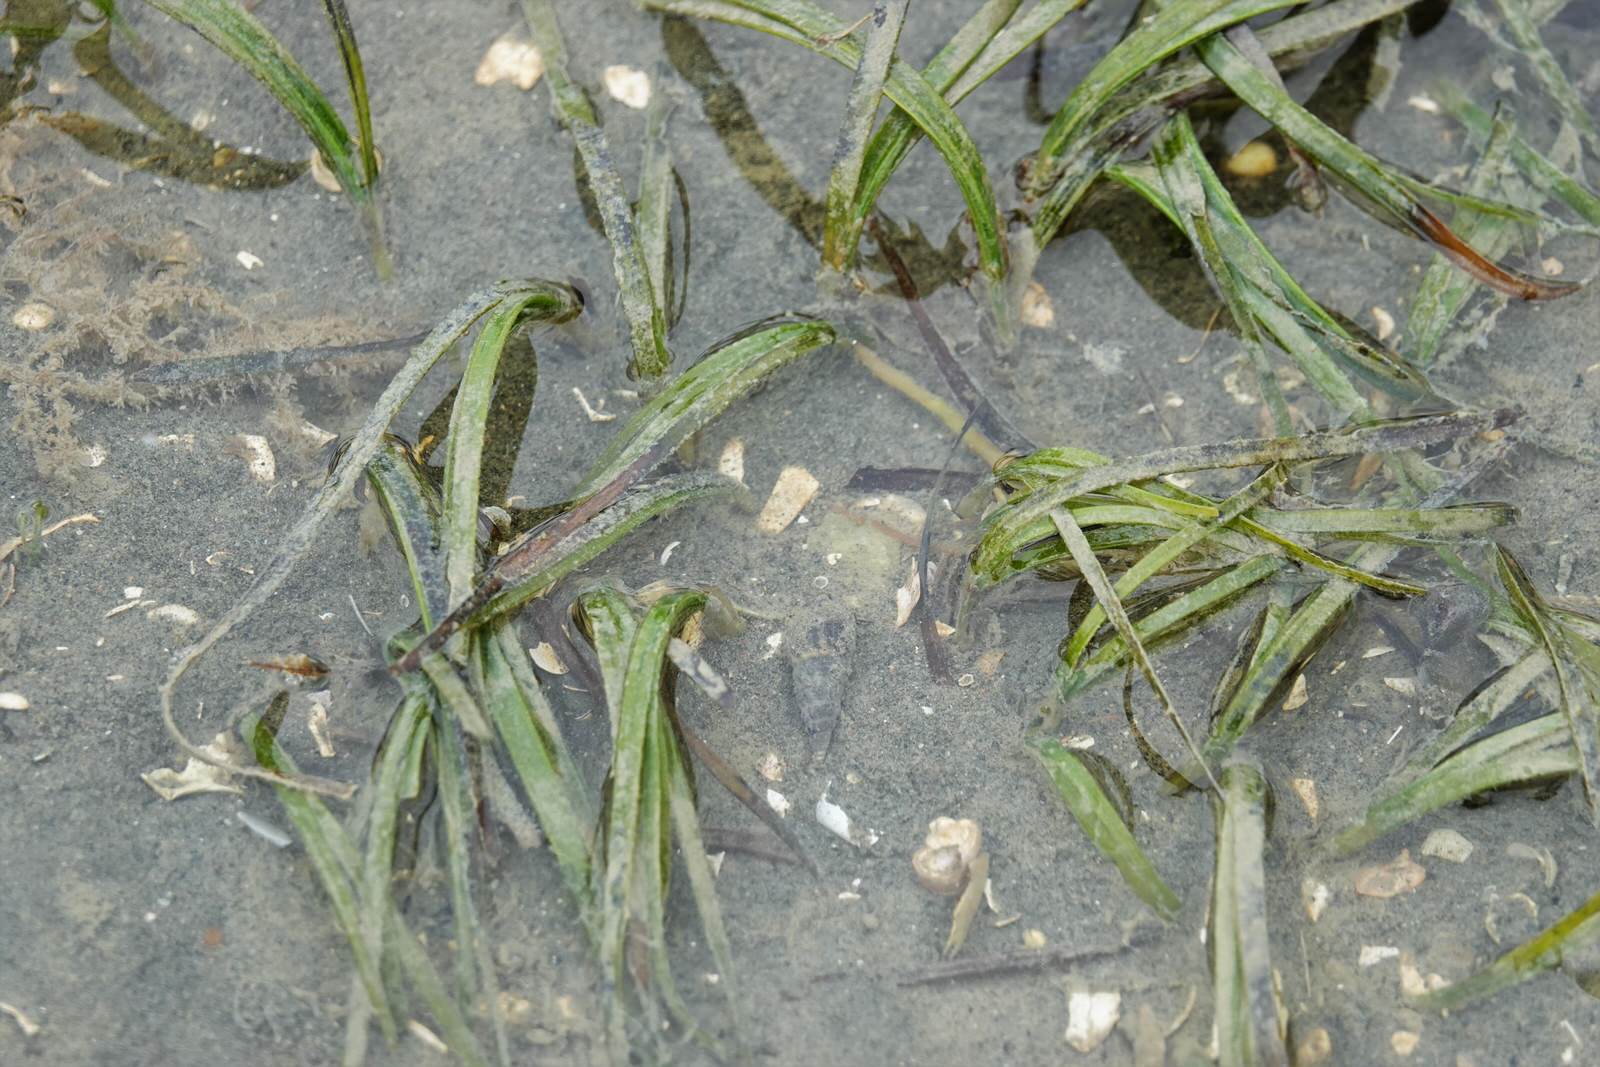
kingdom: Plantae
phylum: Tracheophyta
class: Liliopsida
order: Alismatales
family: Zosteraceae
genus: Zostera
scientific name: Zostera novazelandica
